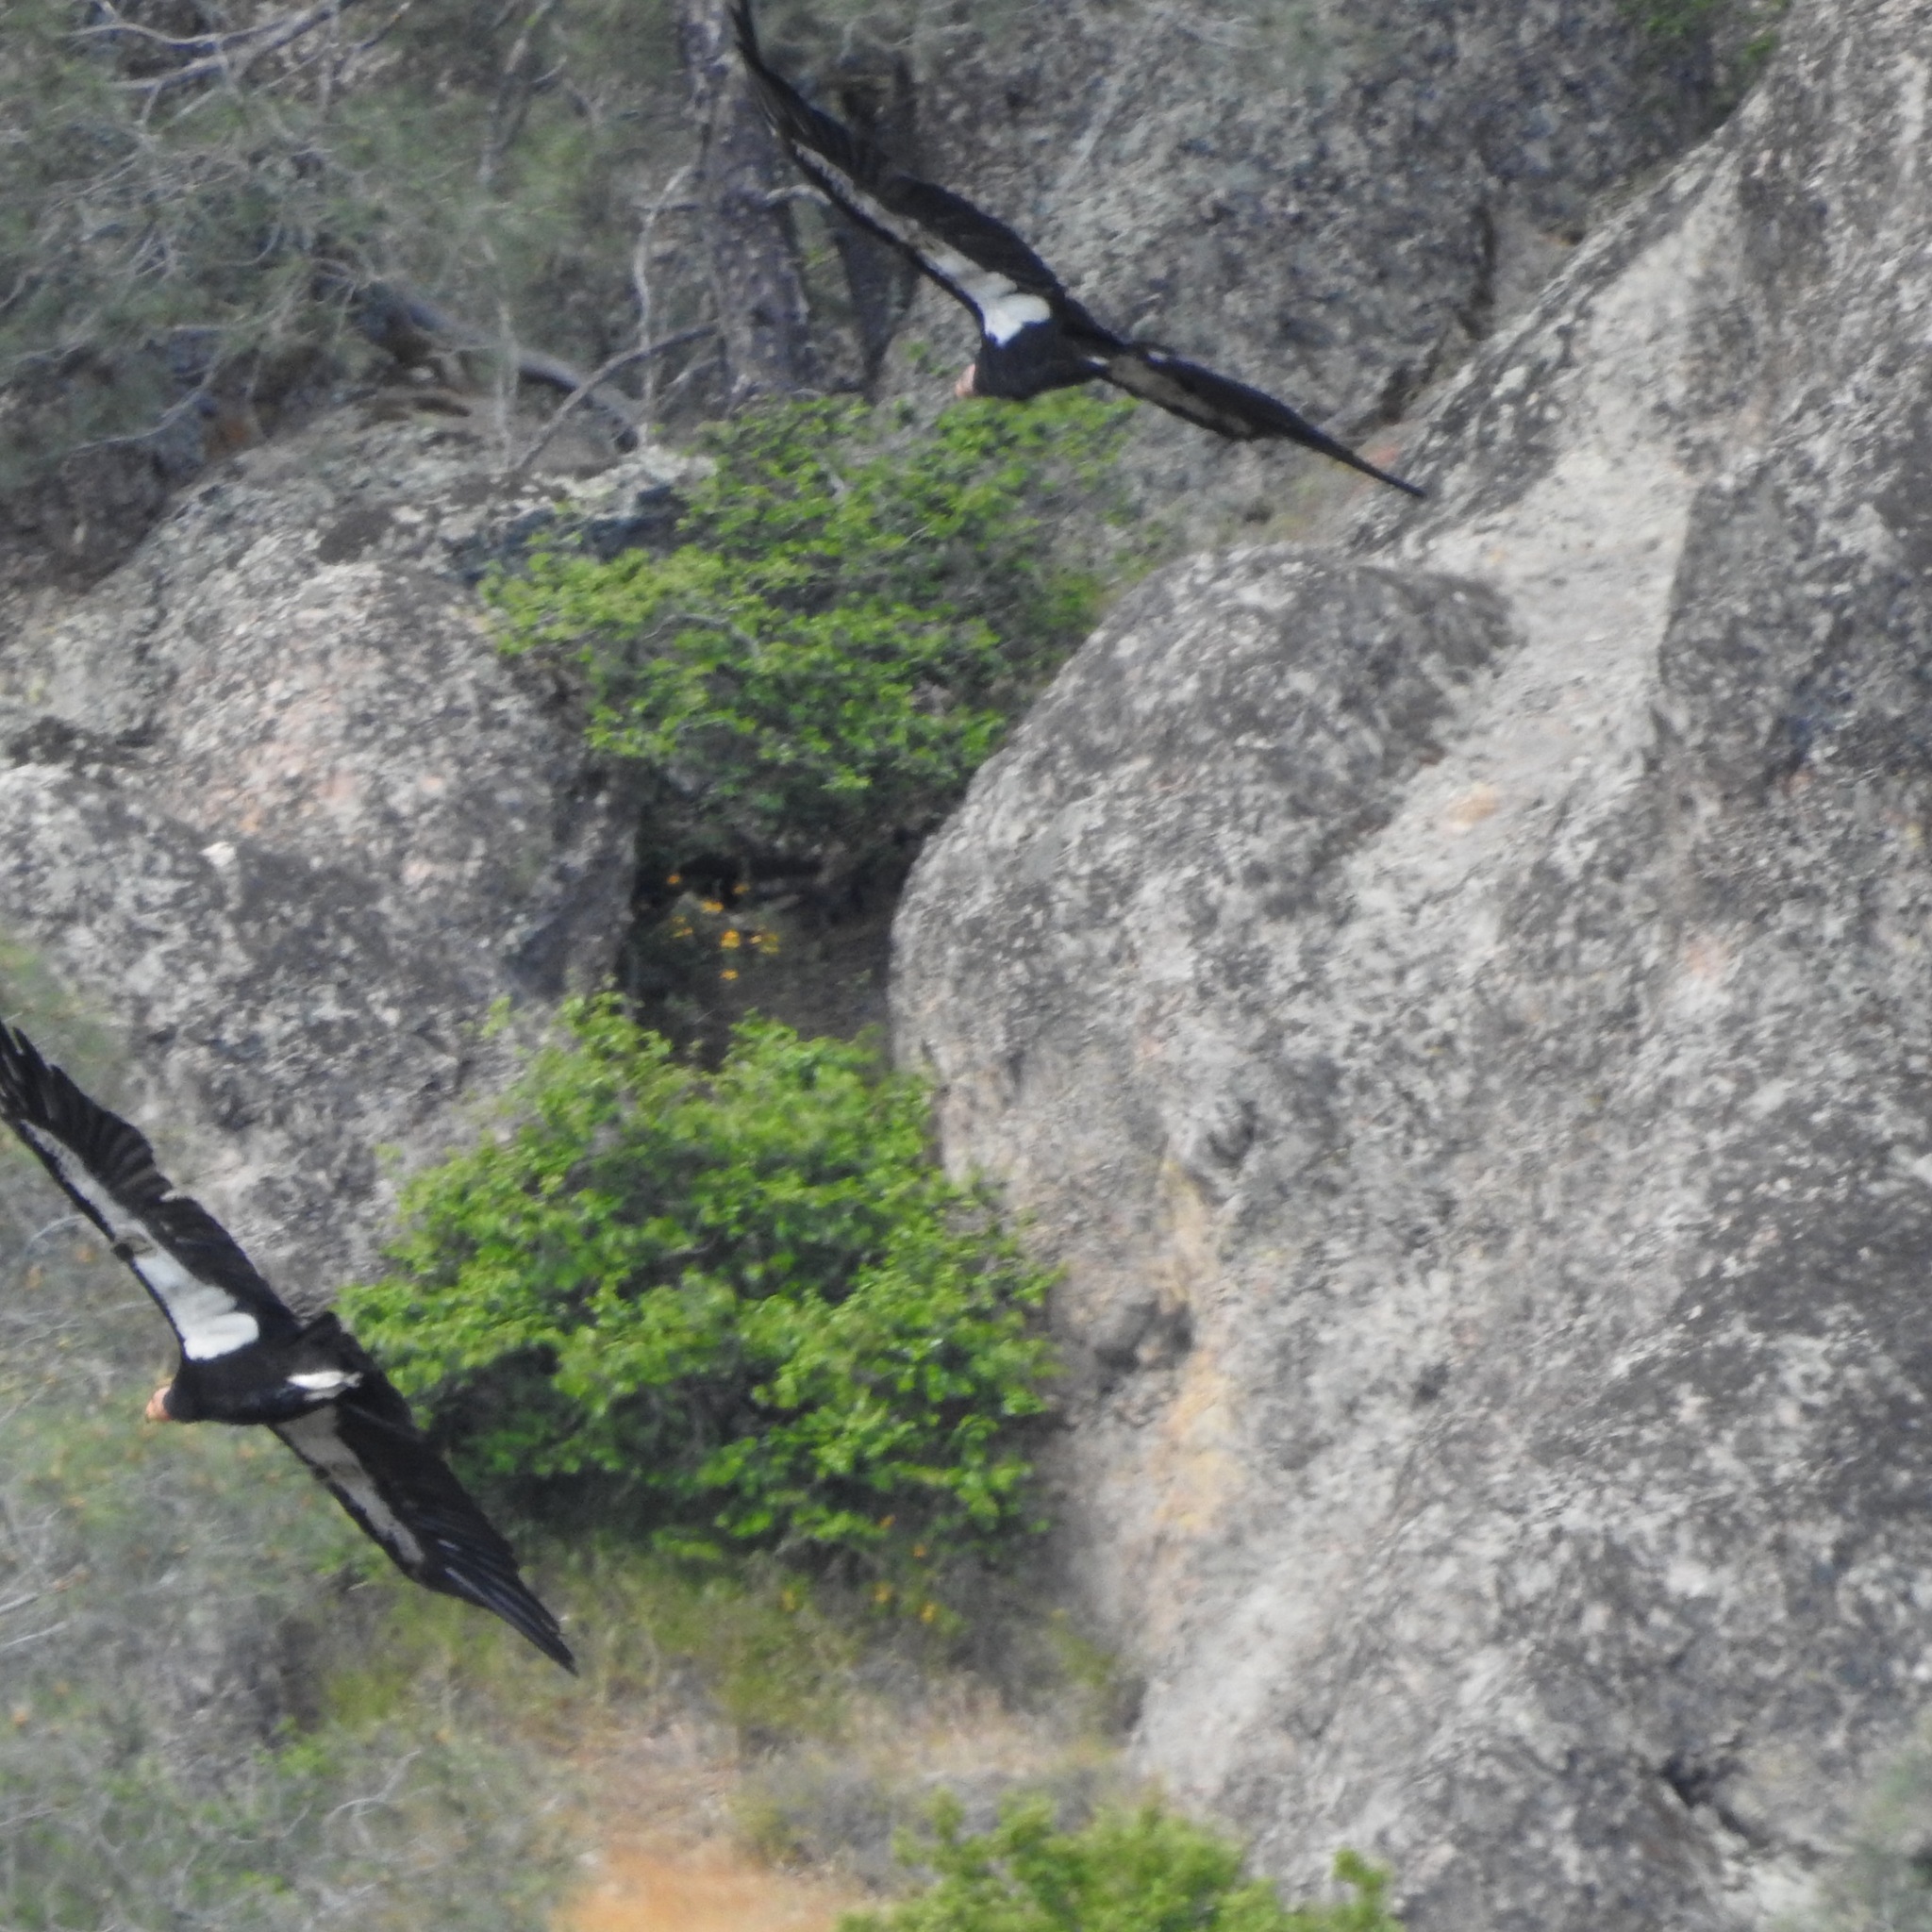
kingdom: Animalia
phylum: Chordata
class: Aves
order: Accipitriformes
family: Cathartidae
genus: Gymnogyps
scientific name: Gymnogyps californianus
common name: California condor
